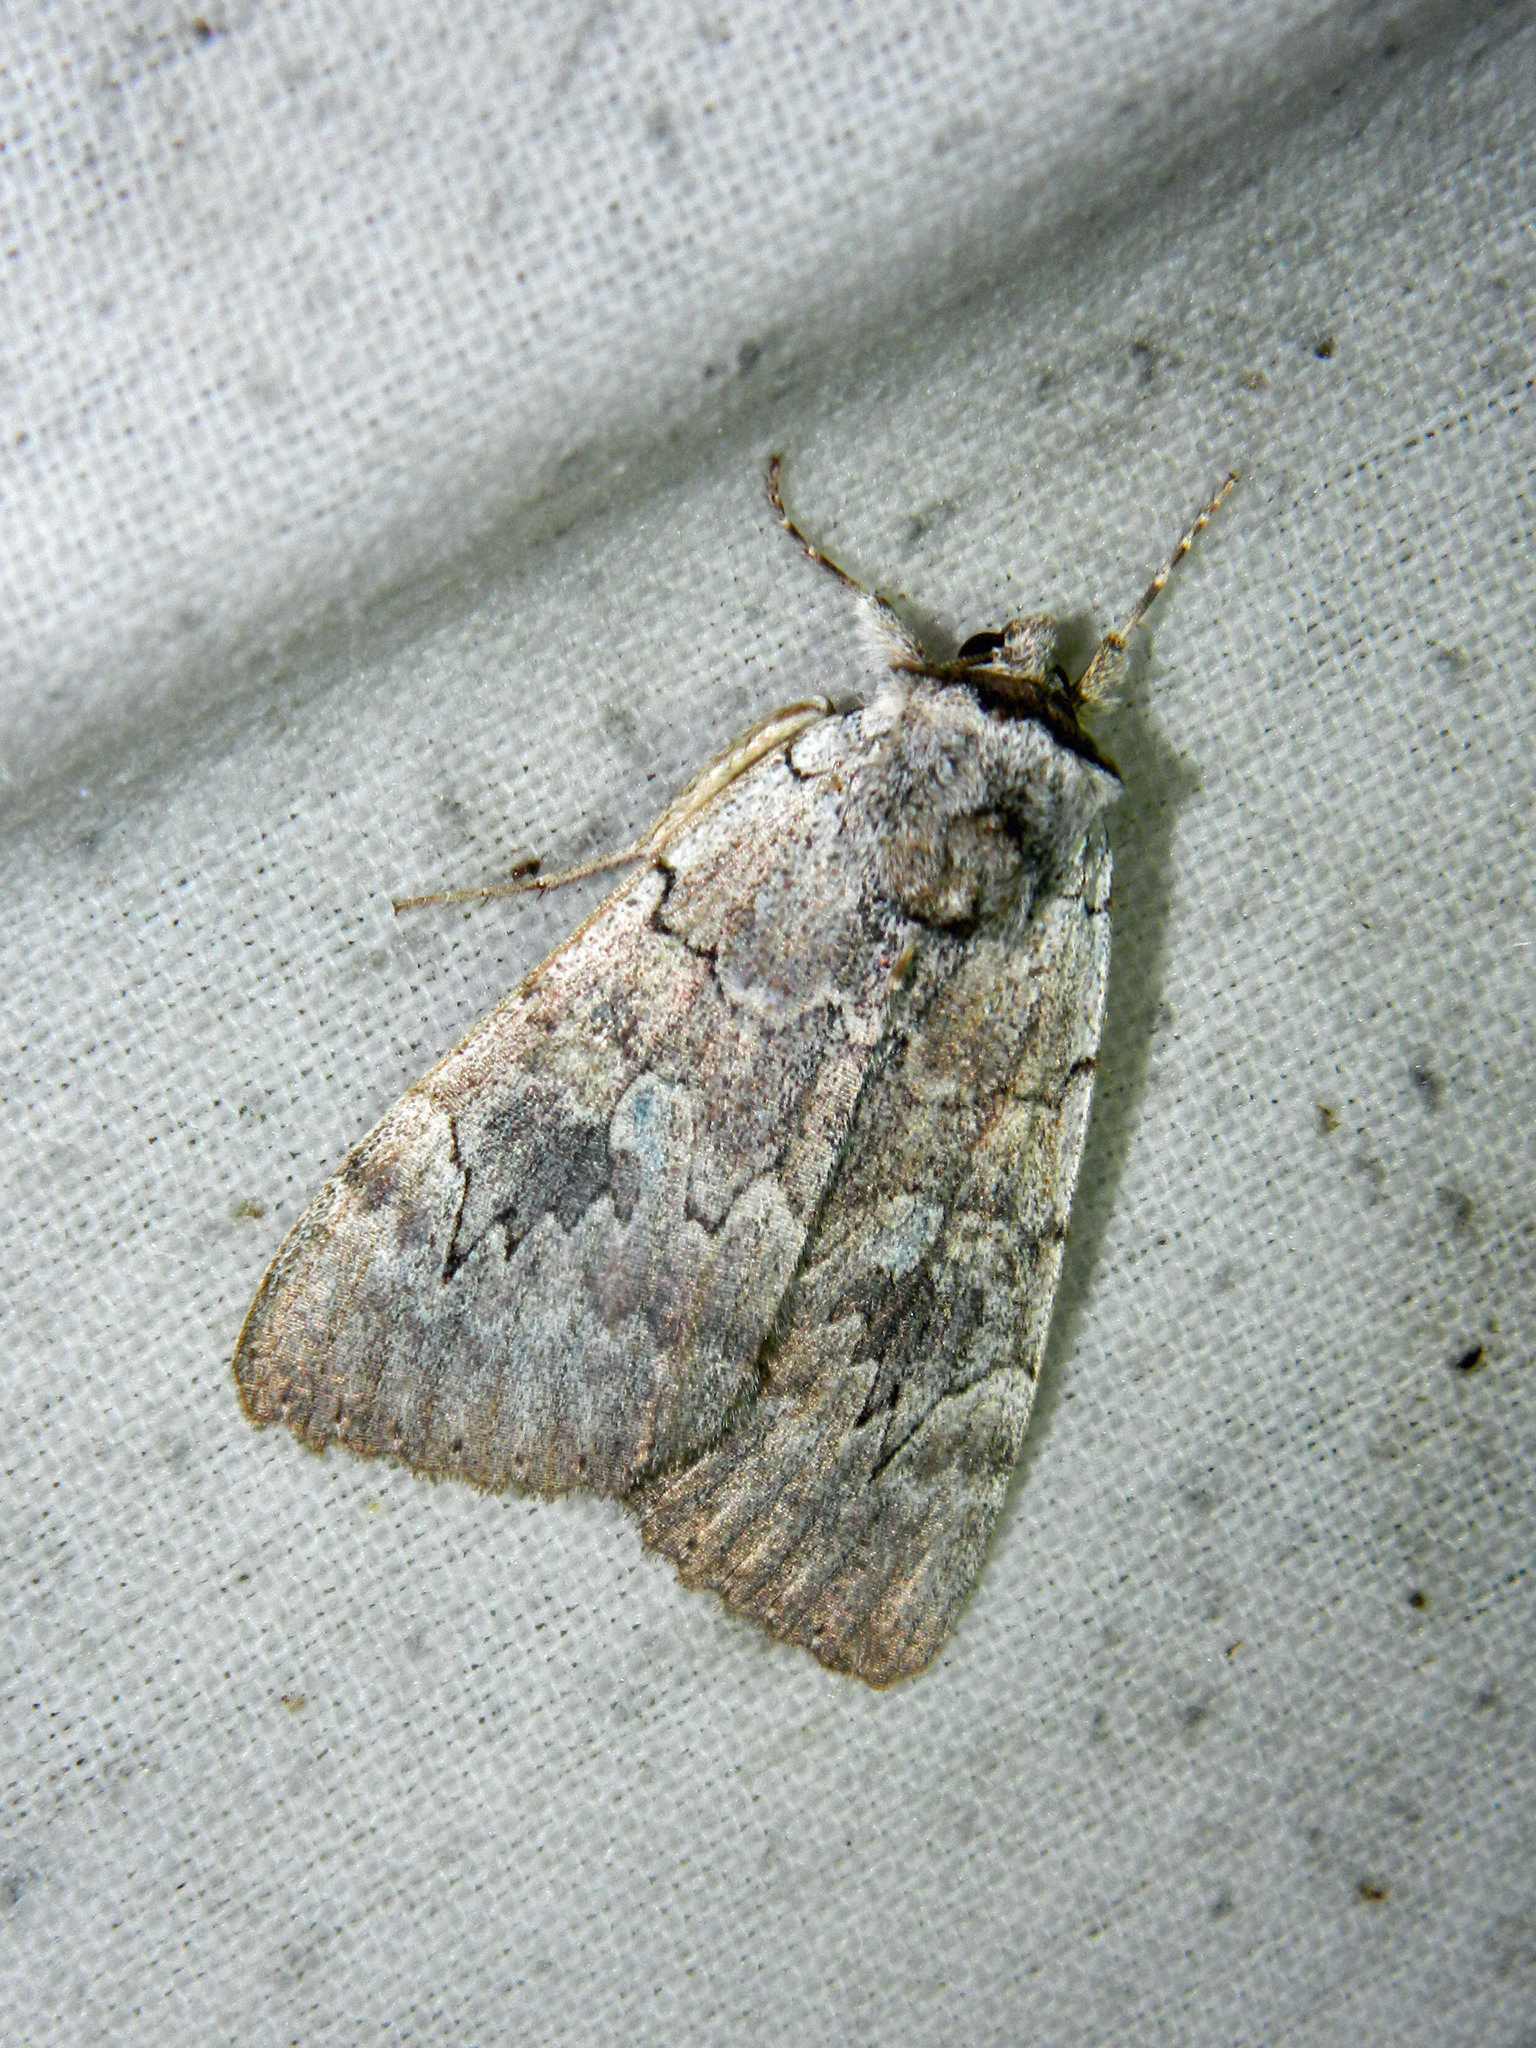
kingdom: Animalia
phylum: Arthropoda
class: Insecta
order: Lepidoptera
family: Erebidae
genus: Catocala
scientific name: Catocala concumbens
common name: Pink underwing
